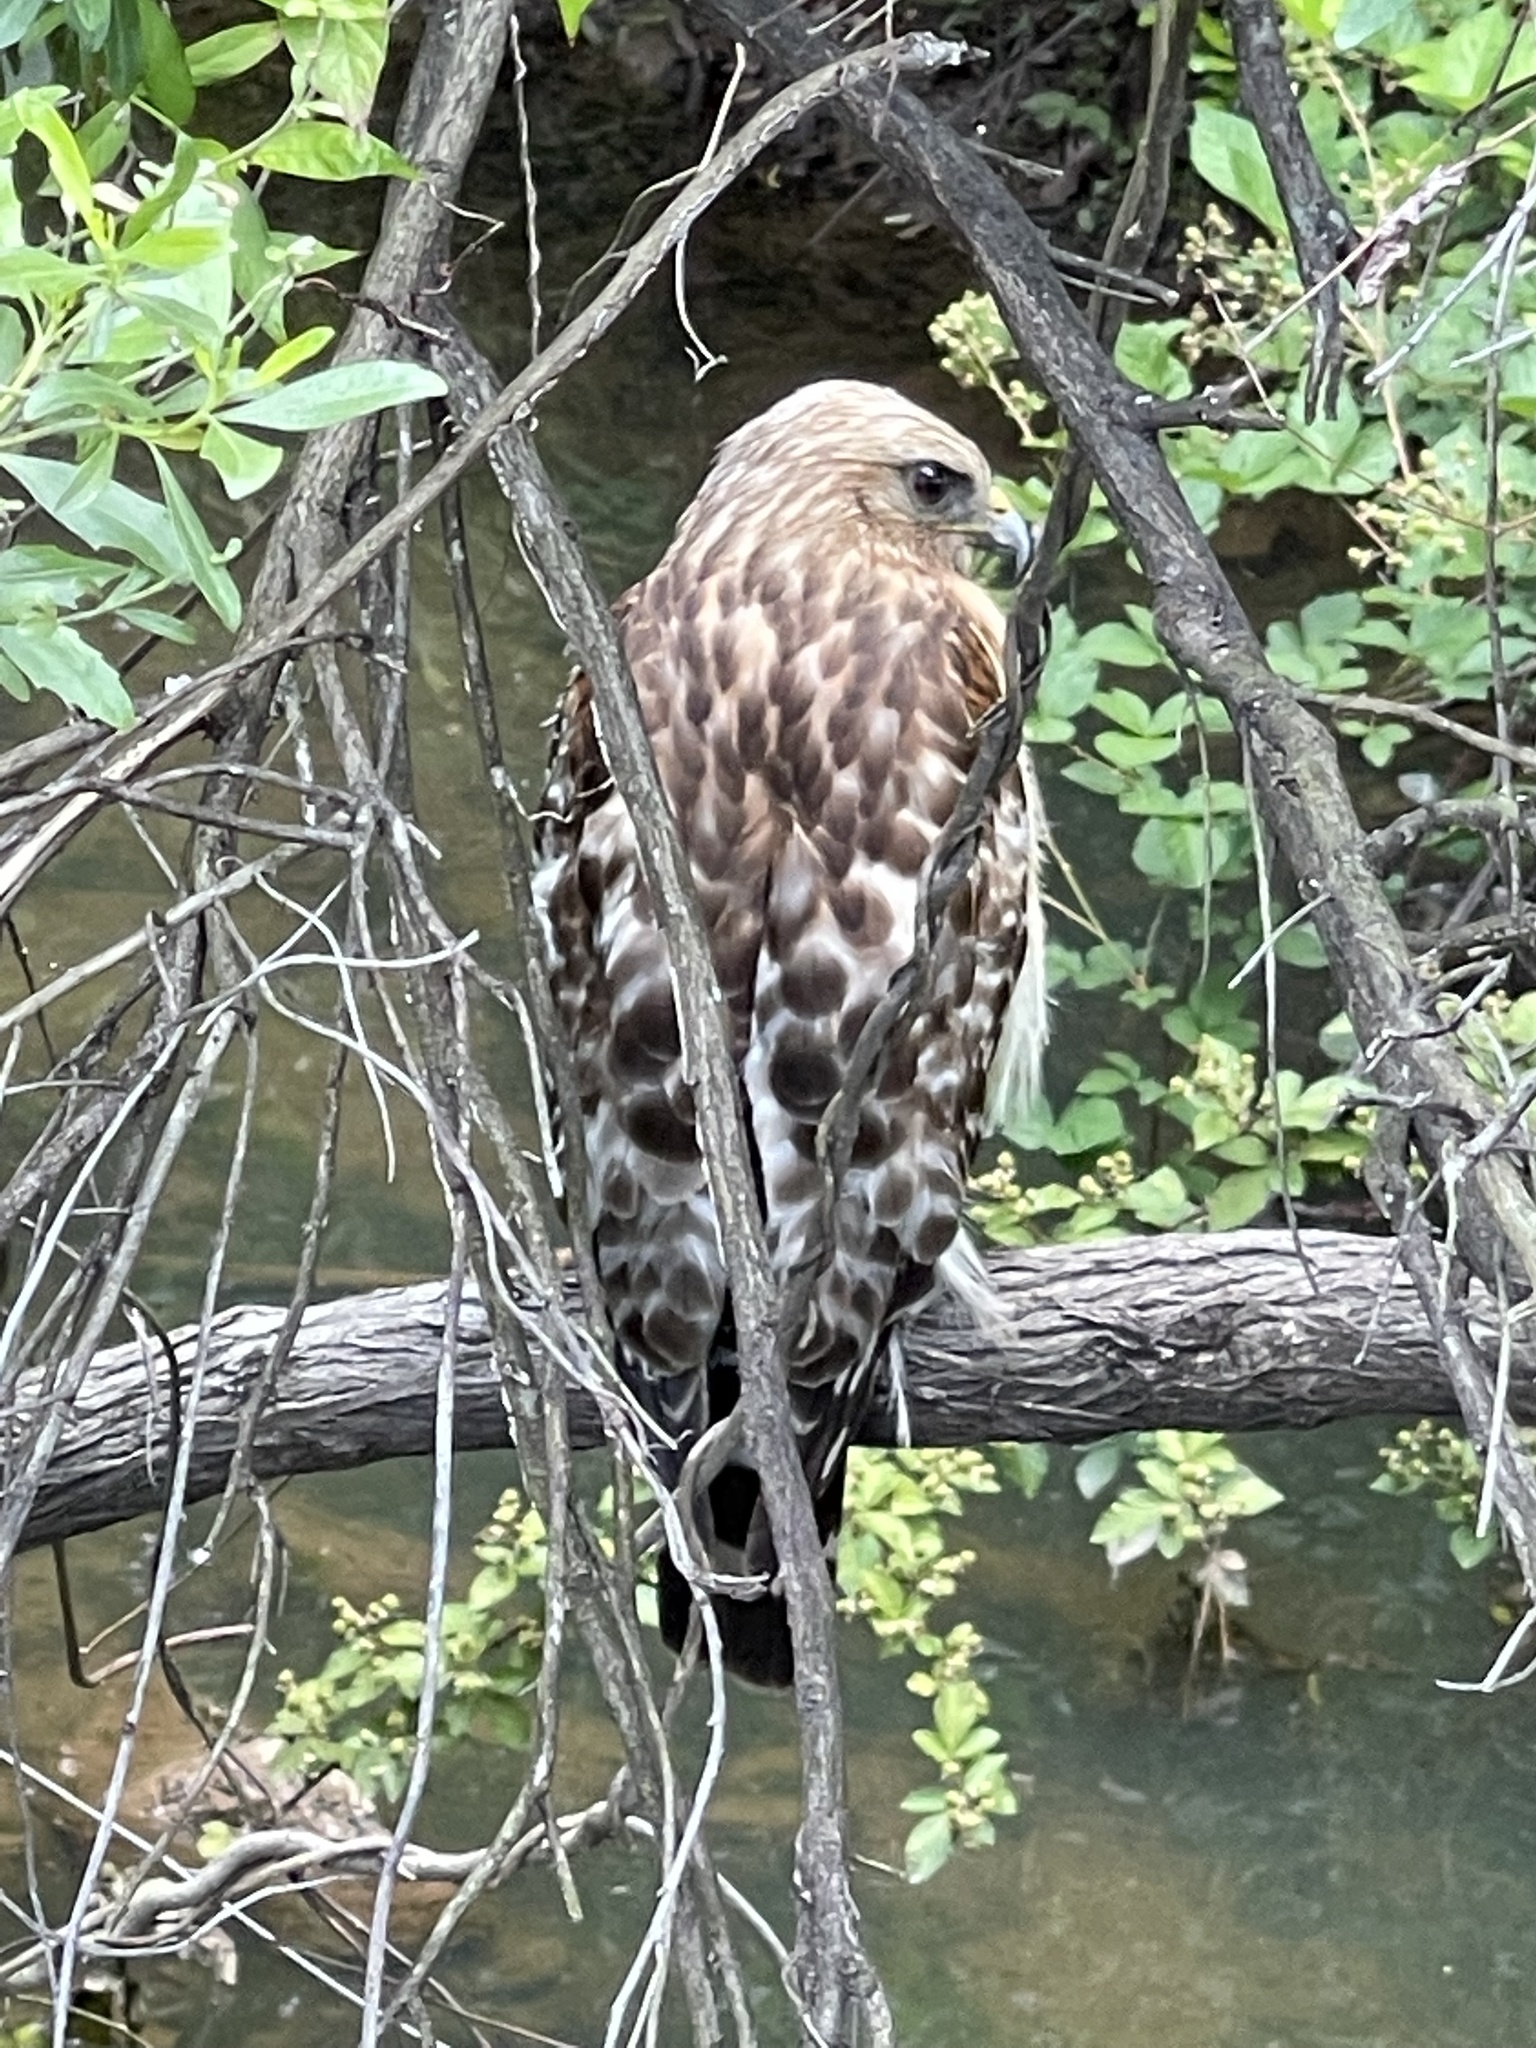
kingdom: Animalia
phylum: Chordata
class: Aves
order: Accipitriformes
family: Accipitridae
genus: Buteo
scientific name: Buteo lineatus
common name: Red-shouldered hawk
